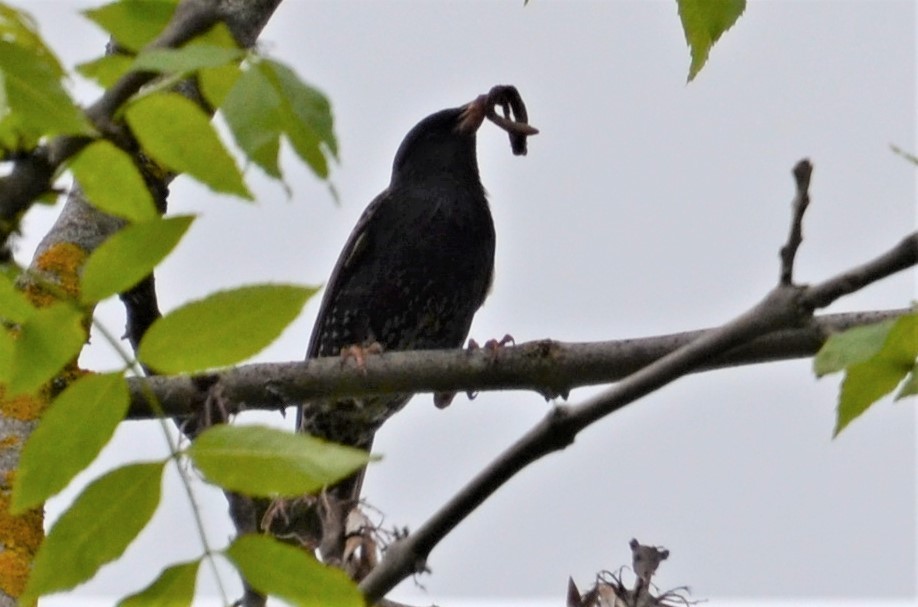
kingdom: Animalia
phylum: Chordata
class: Aves
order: Passeriformes
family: Sturnidae
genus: Sturnus
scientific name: Sturnus vulgaris
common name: Common starling
